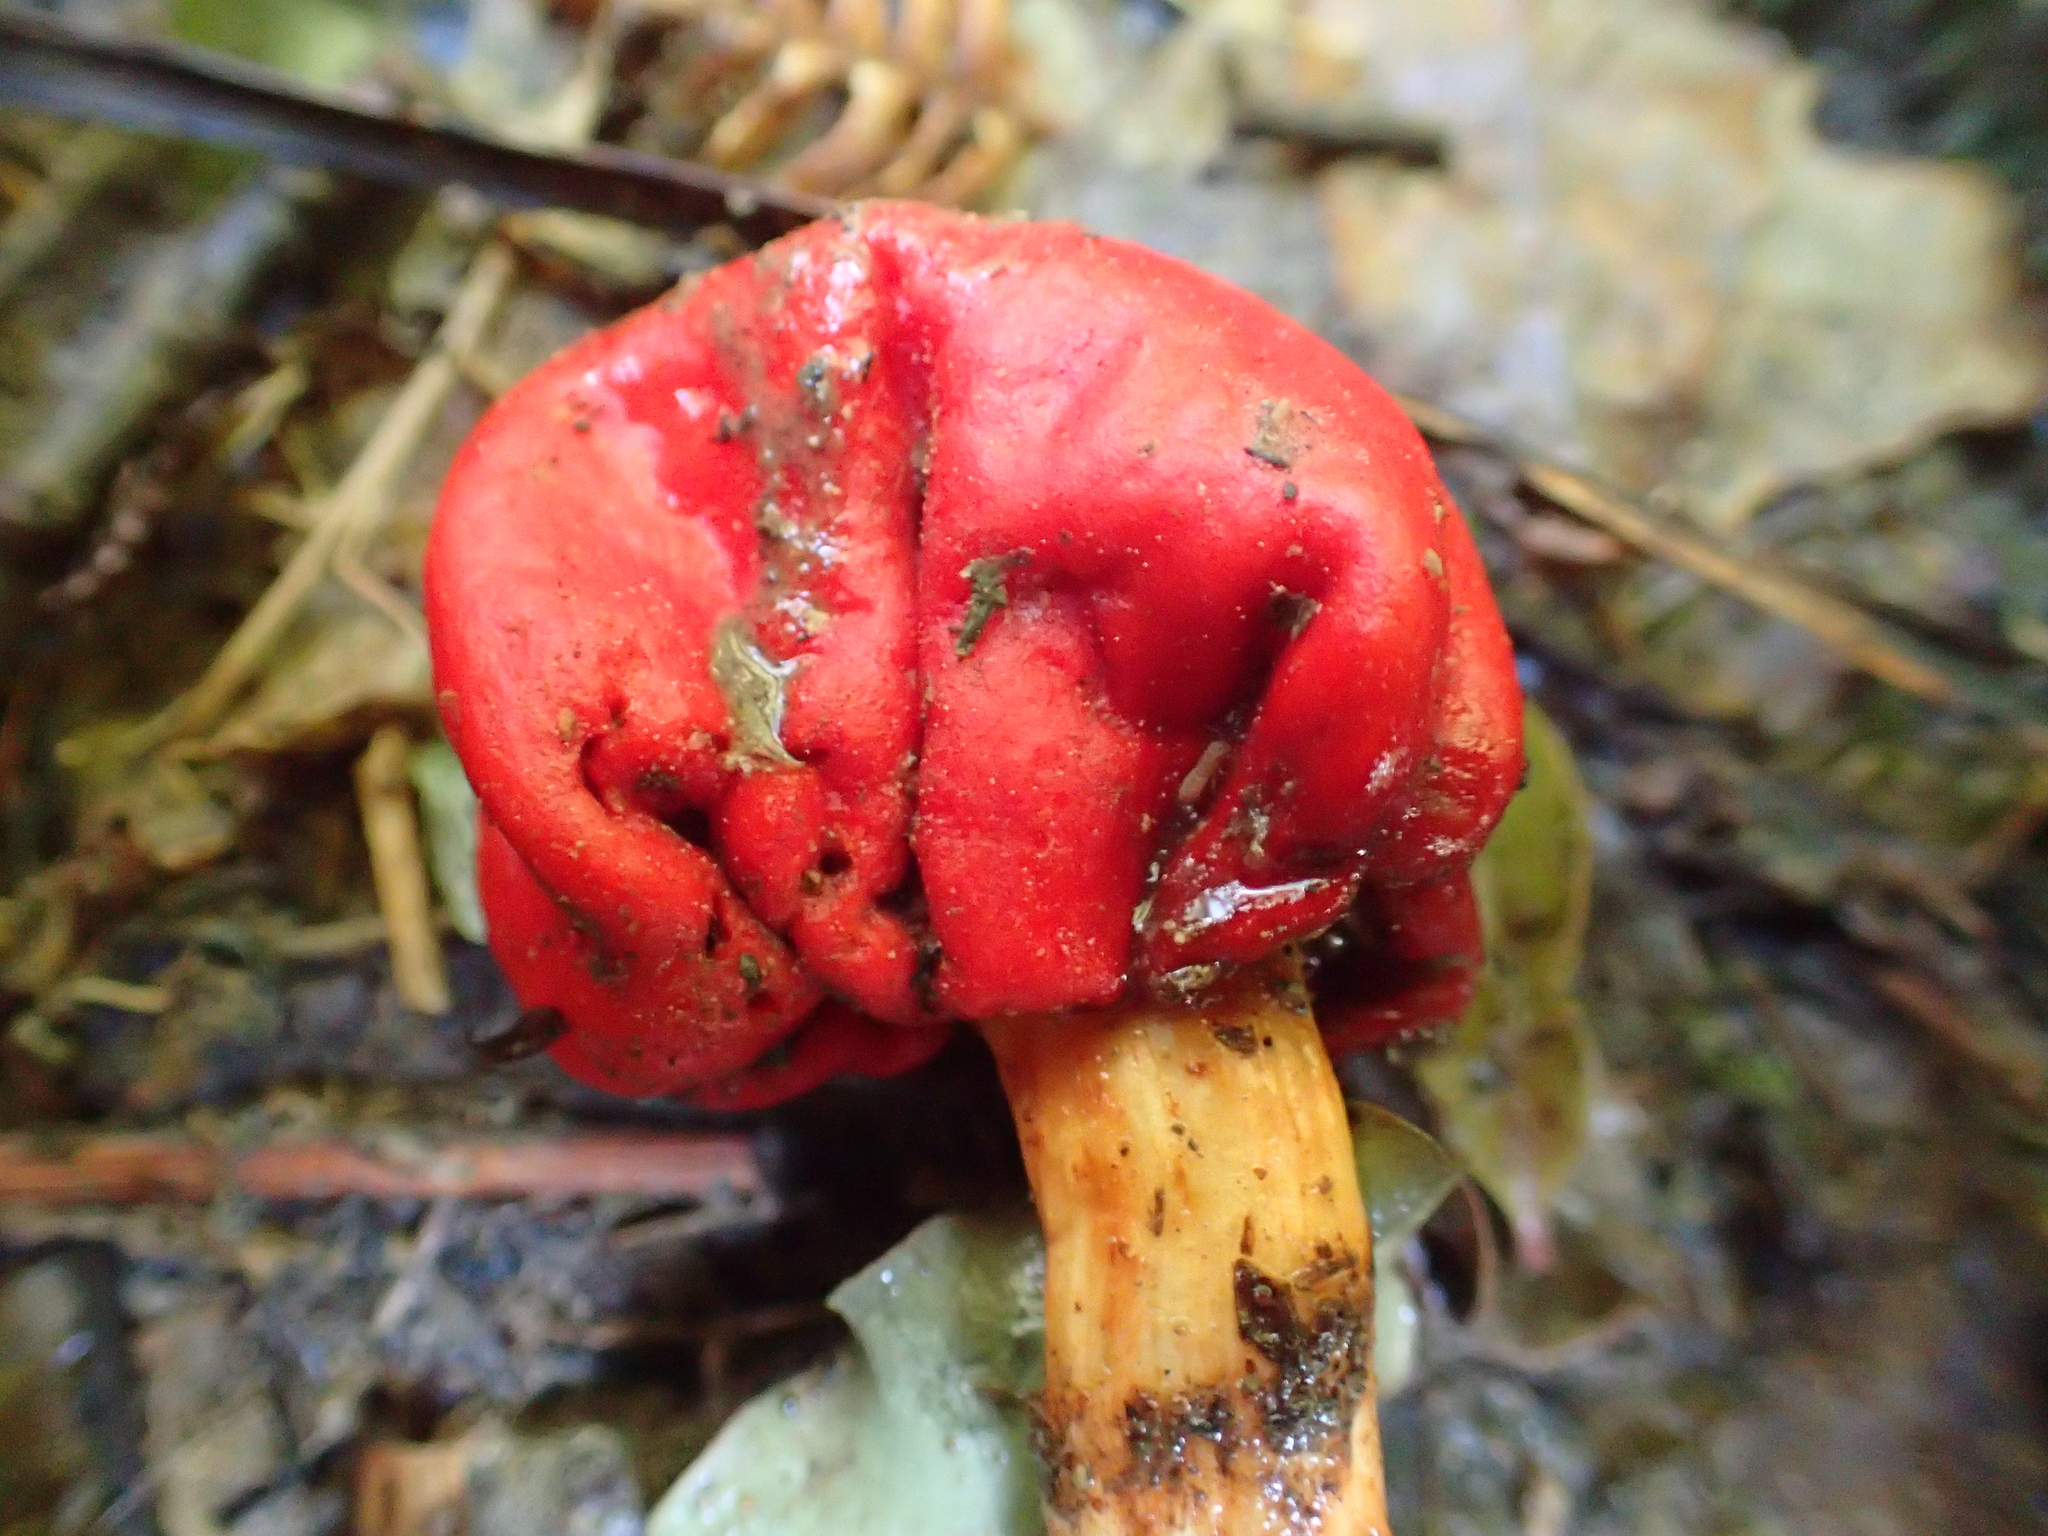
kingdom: Fungi
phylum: Basidiomycota
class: Agaricomycetes
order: Agaricales
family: Strophariaceae
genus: Leratiomyces
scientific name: Leratiomyces erythrocephalus
